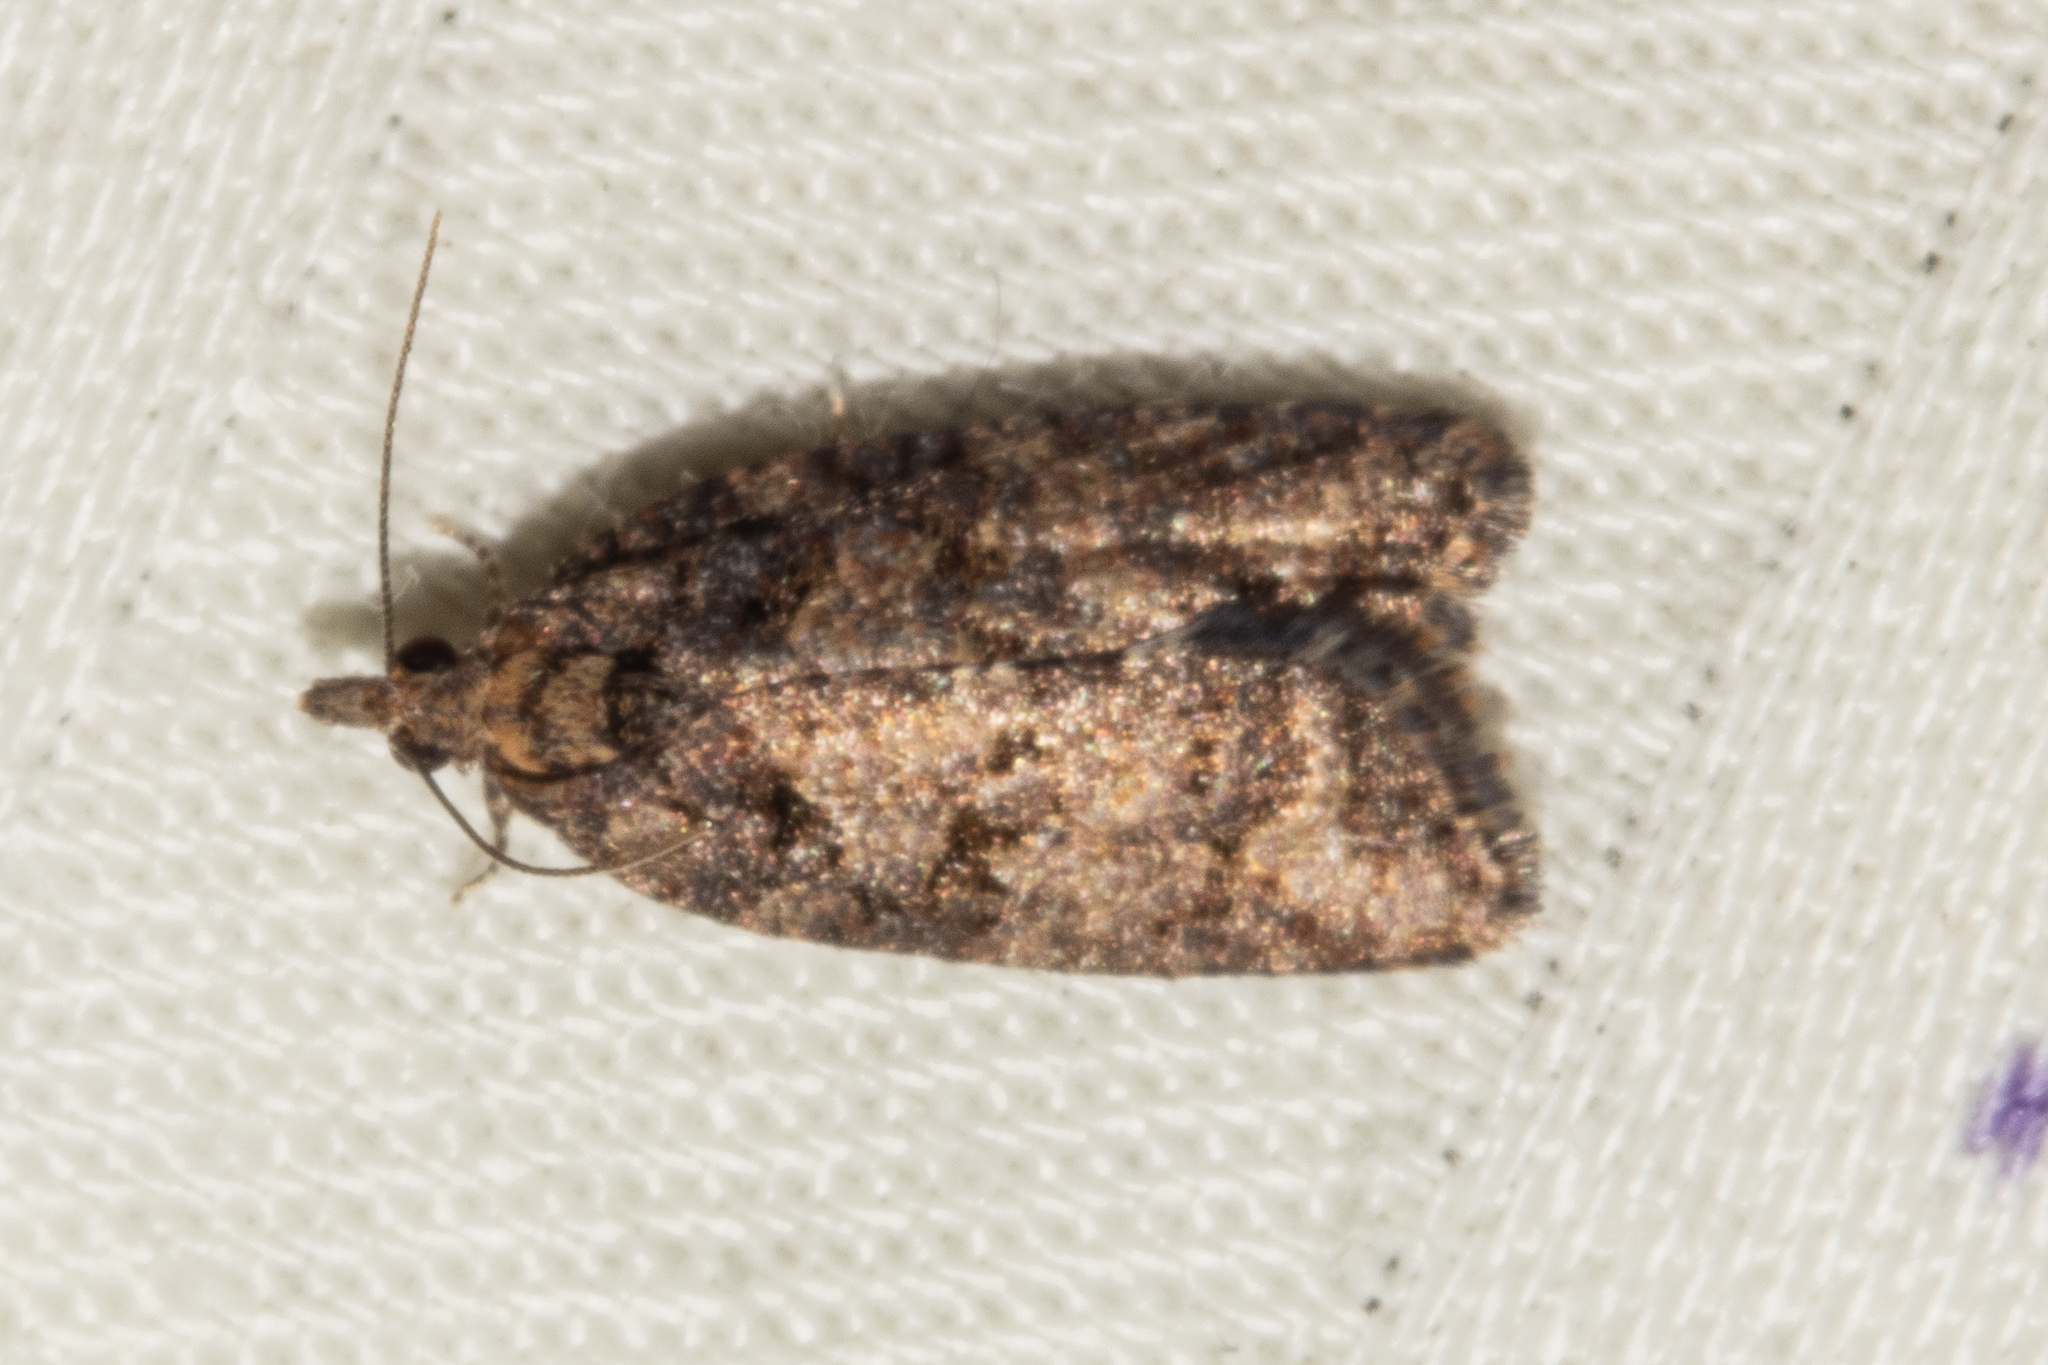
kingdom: Animalia
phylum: Arthropoda
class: Insecta
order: Lepidoptera
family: Tortricidae
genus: Capua
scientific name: Capua intractana
